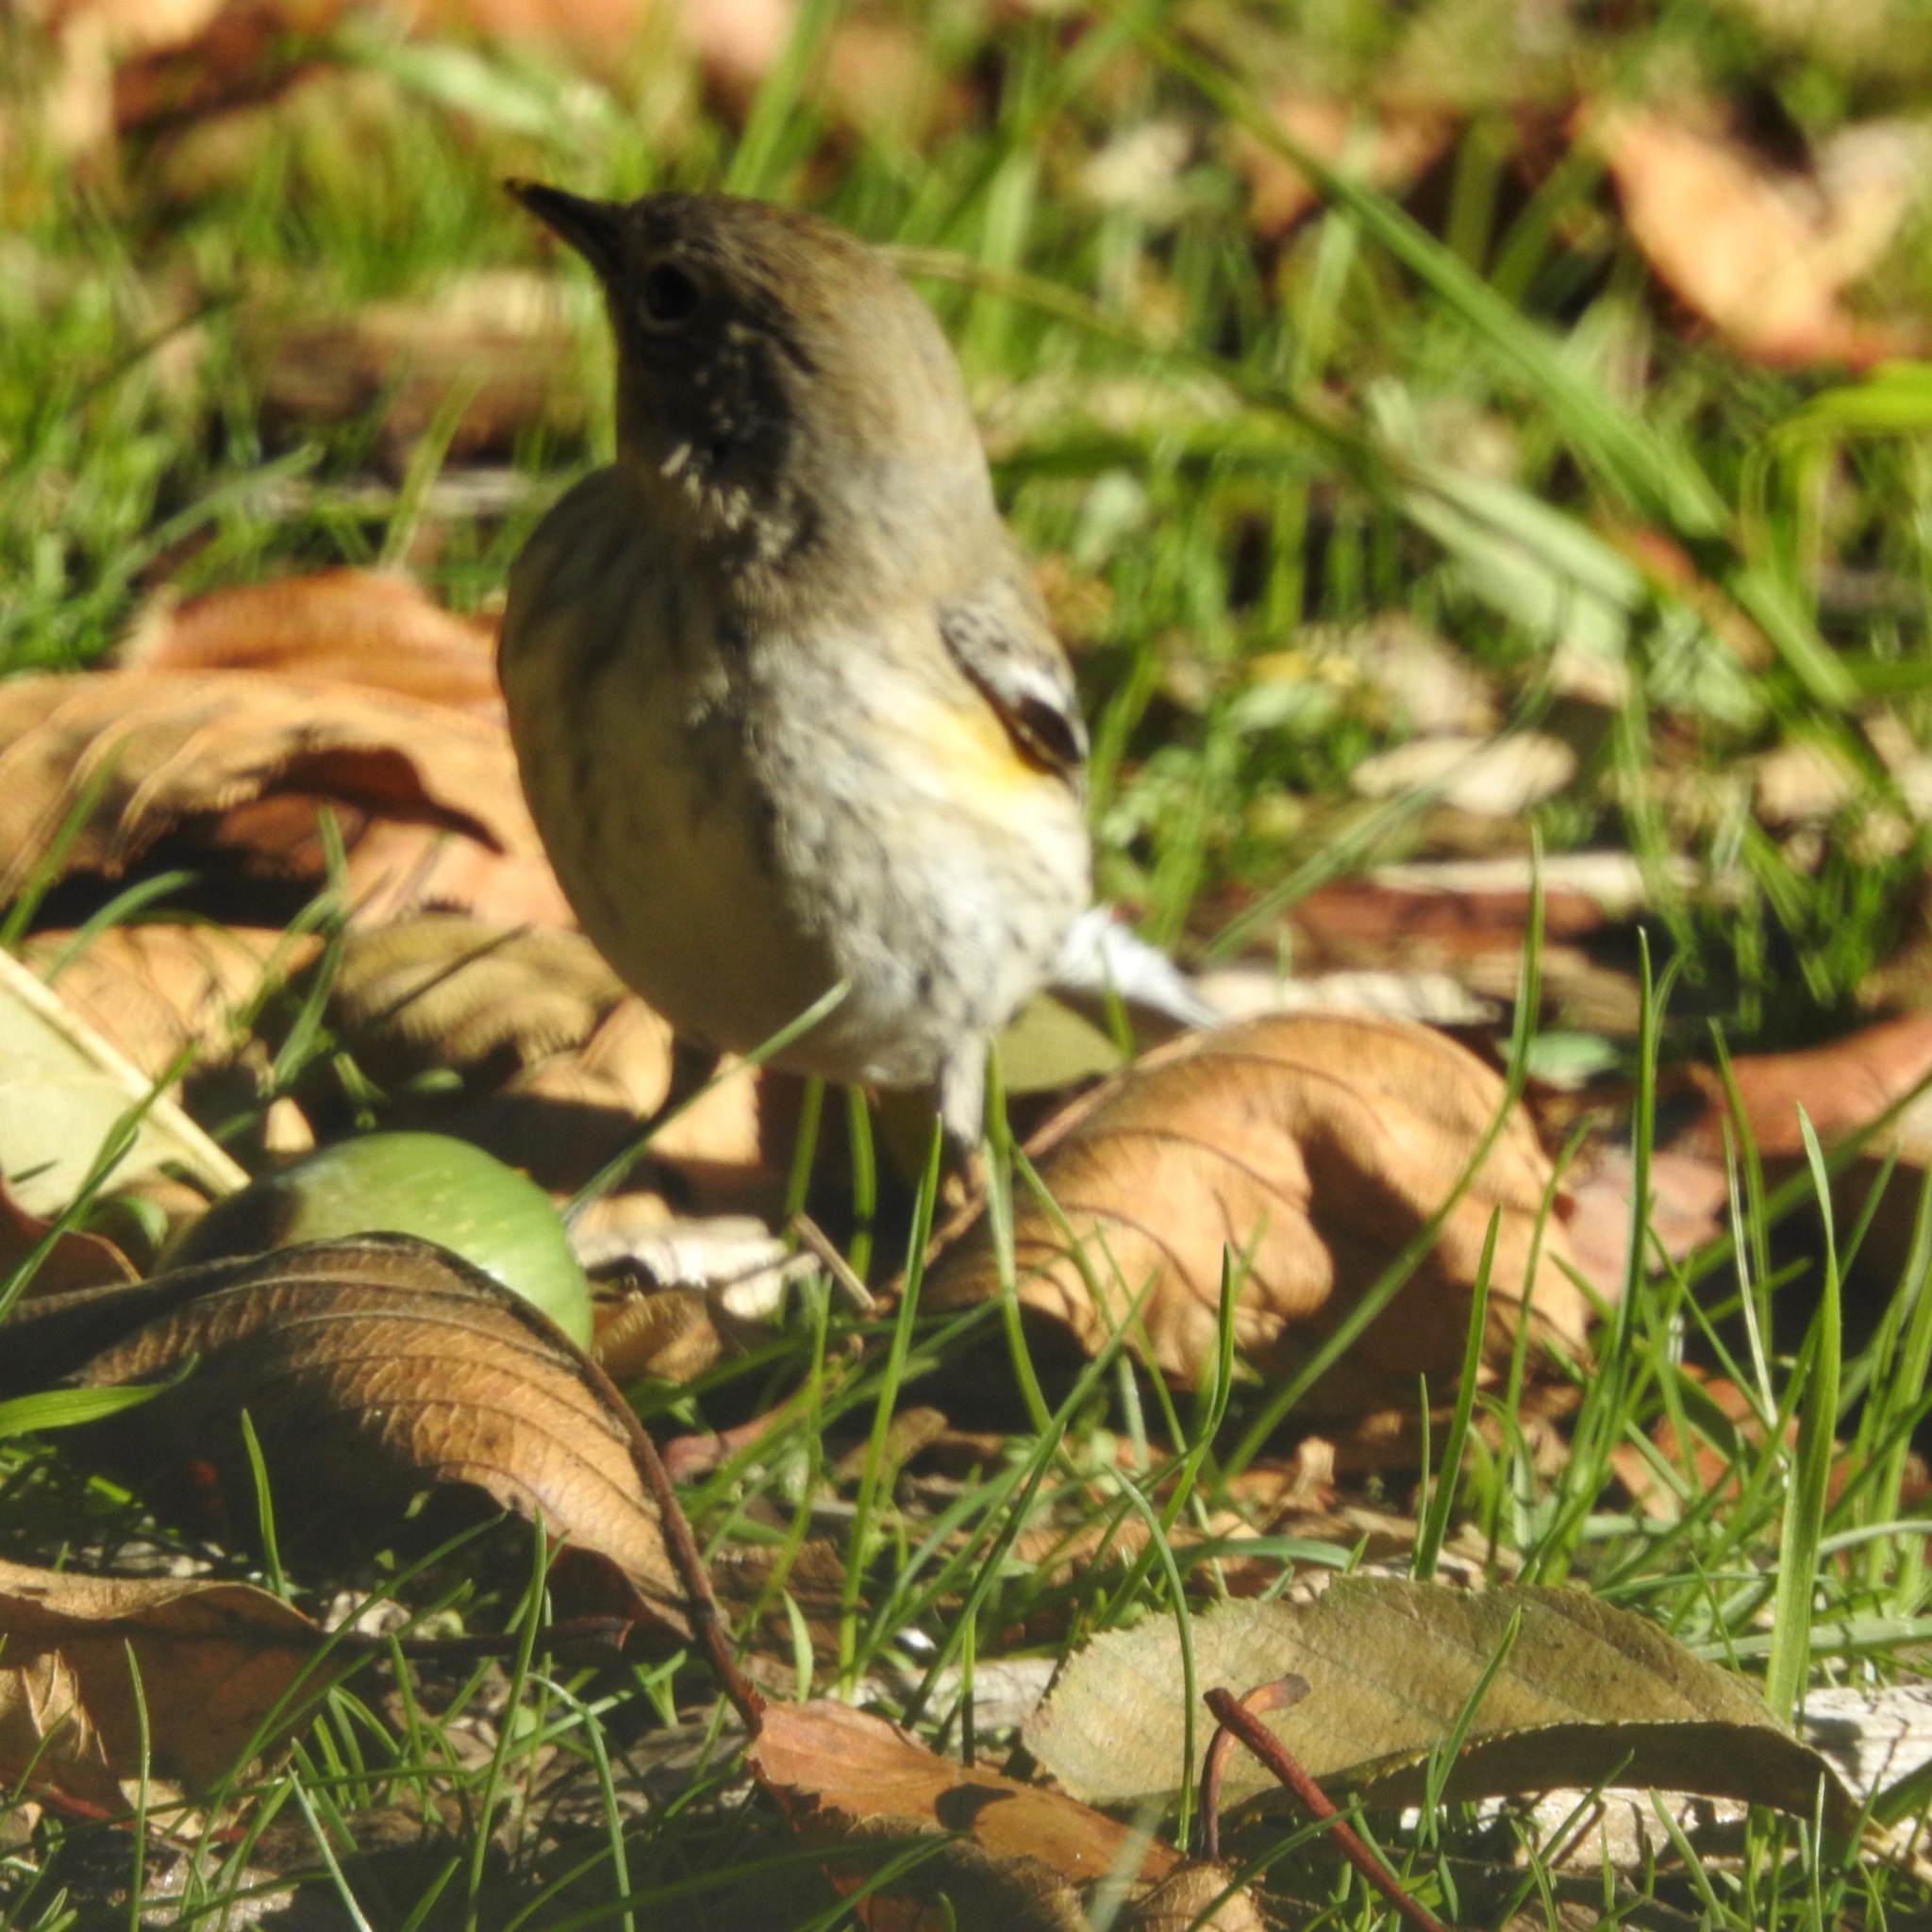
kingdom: Animalia
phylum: Chordata
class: Aves
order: Passeriformes
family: Parulidae
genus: Setophaga
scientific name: Setophaga coronata
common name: Myrtle warbler
